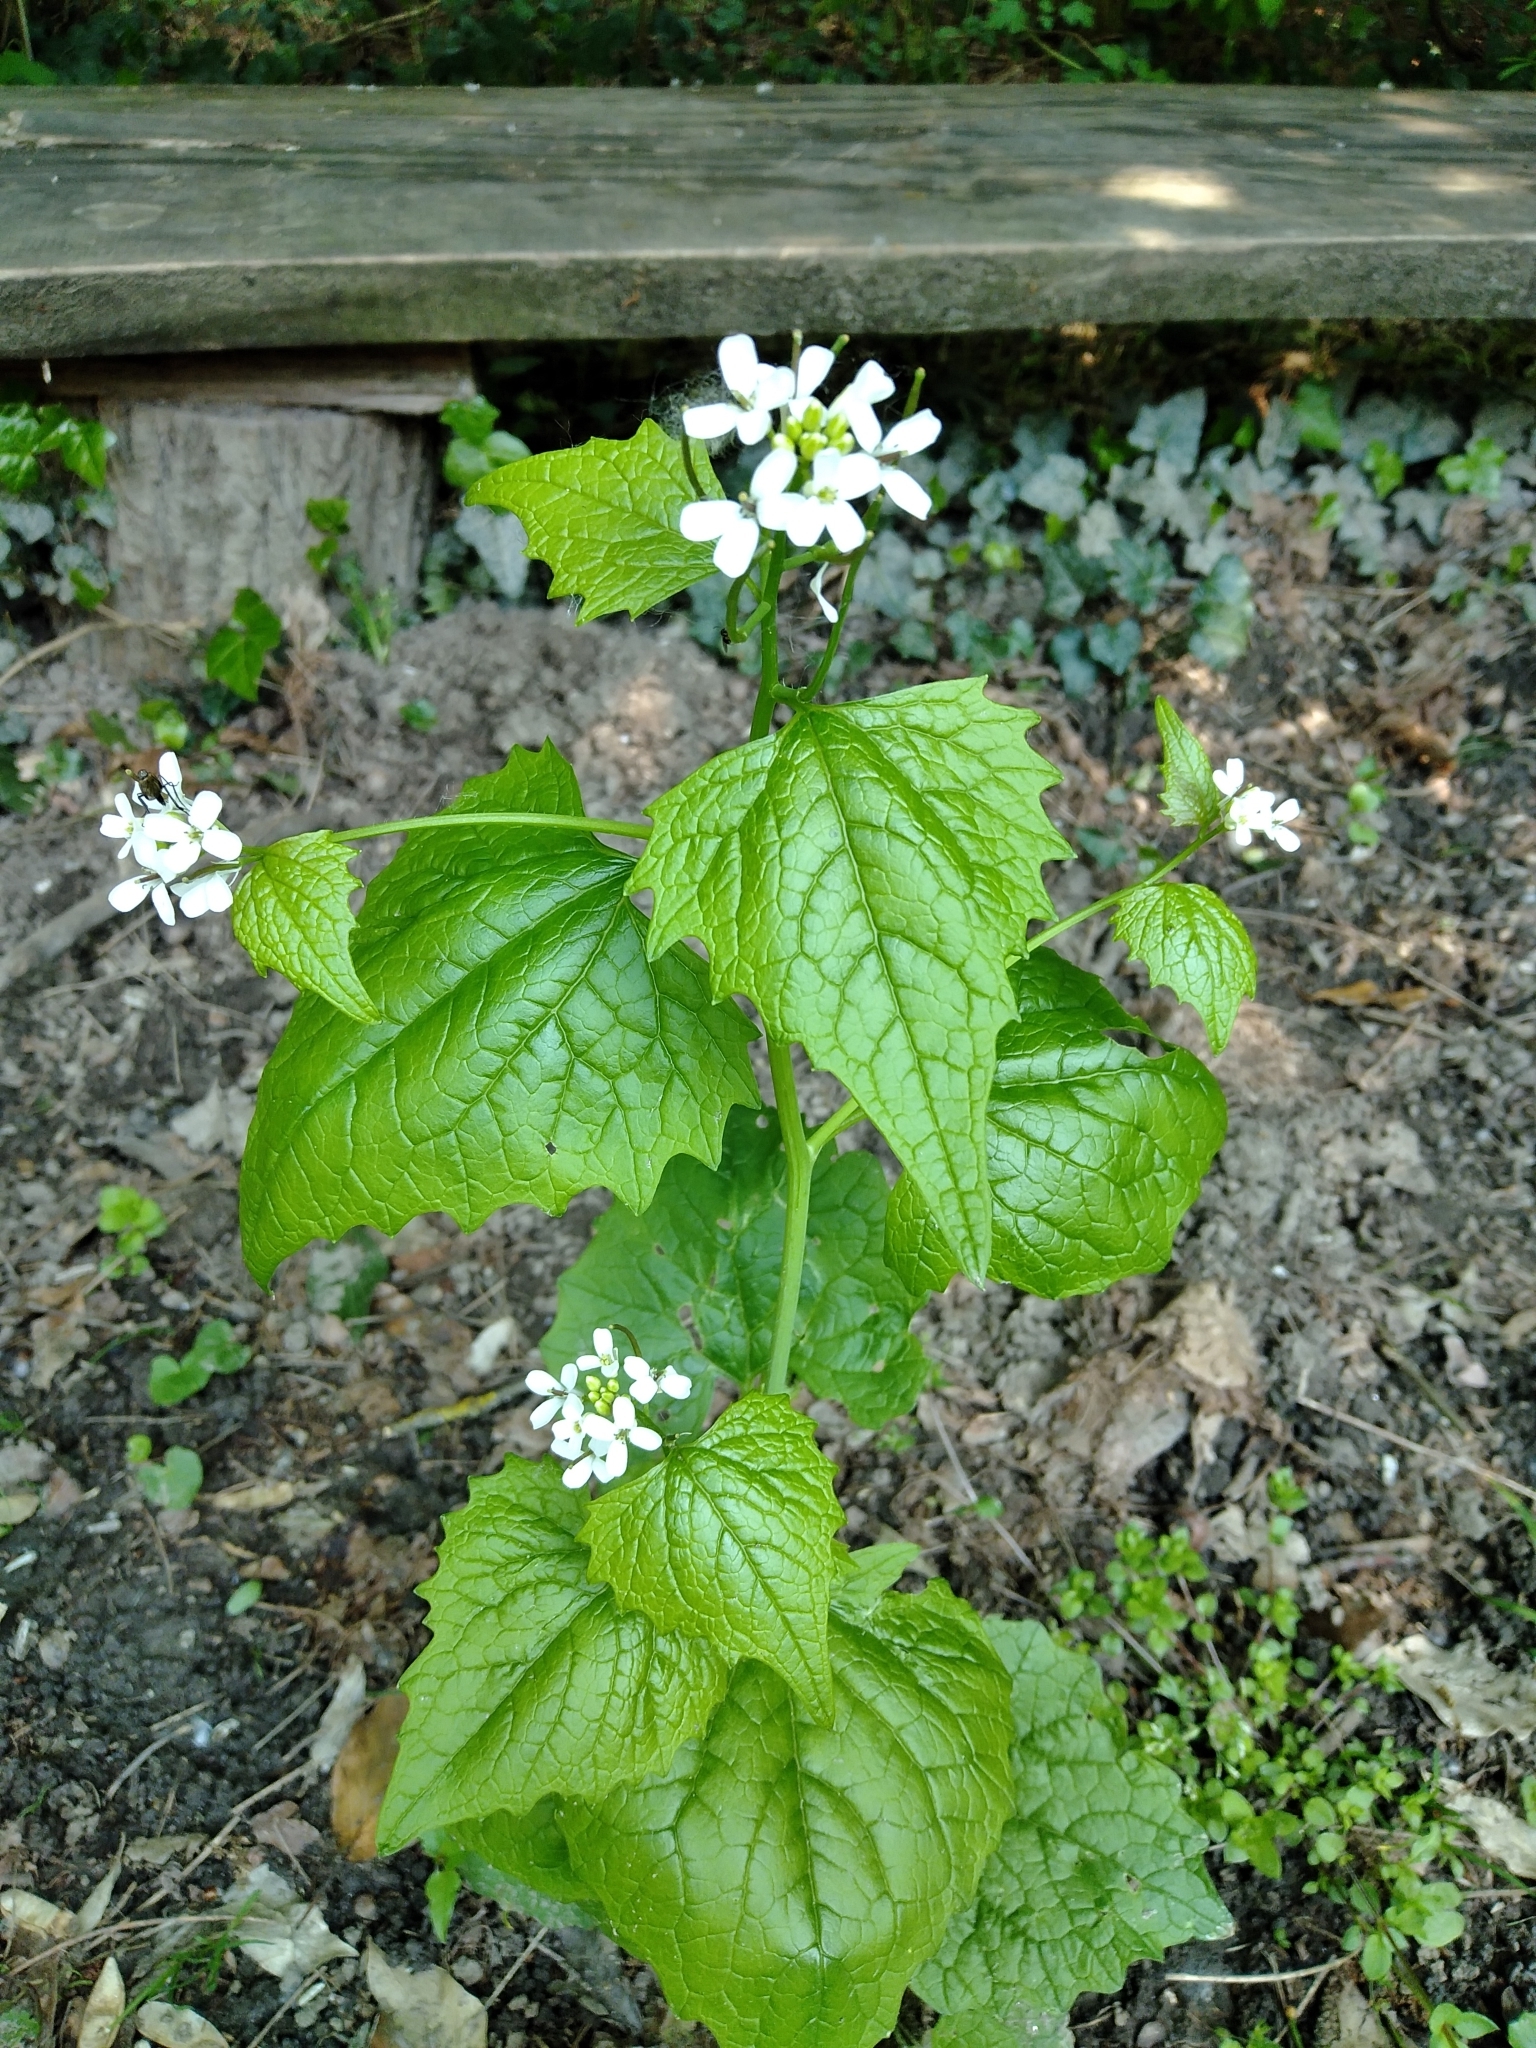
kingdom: Plantae
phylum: Tracheophyta
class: Magnoliopsida
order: Brassicales
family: Brassicaceae
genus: Alliaria
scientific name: Alliaria petiolata
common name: Garlic mustard
